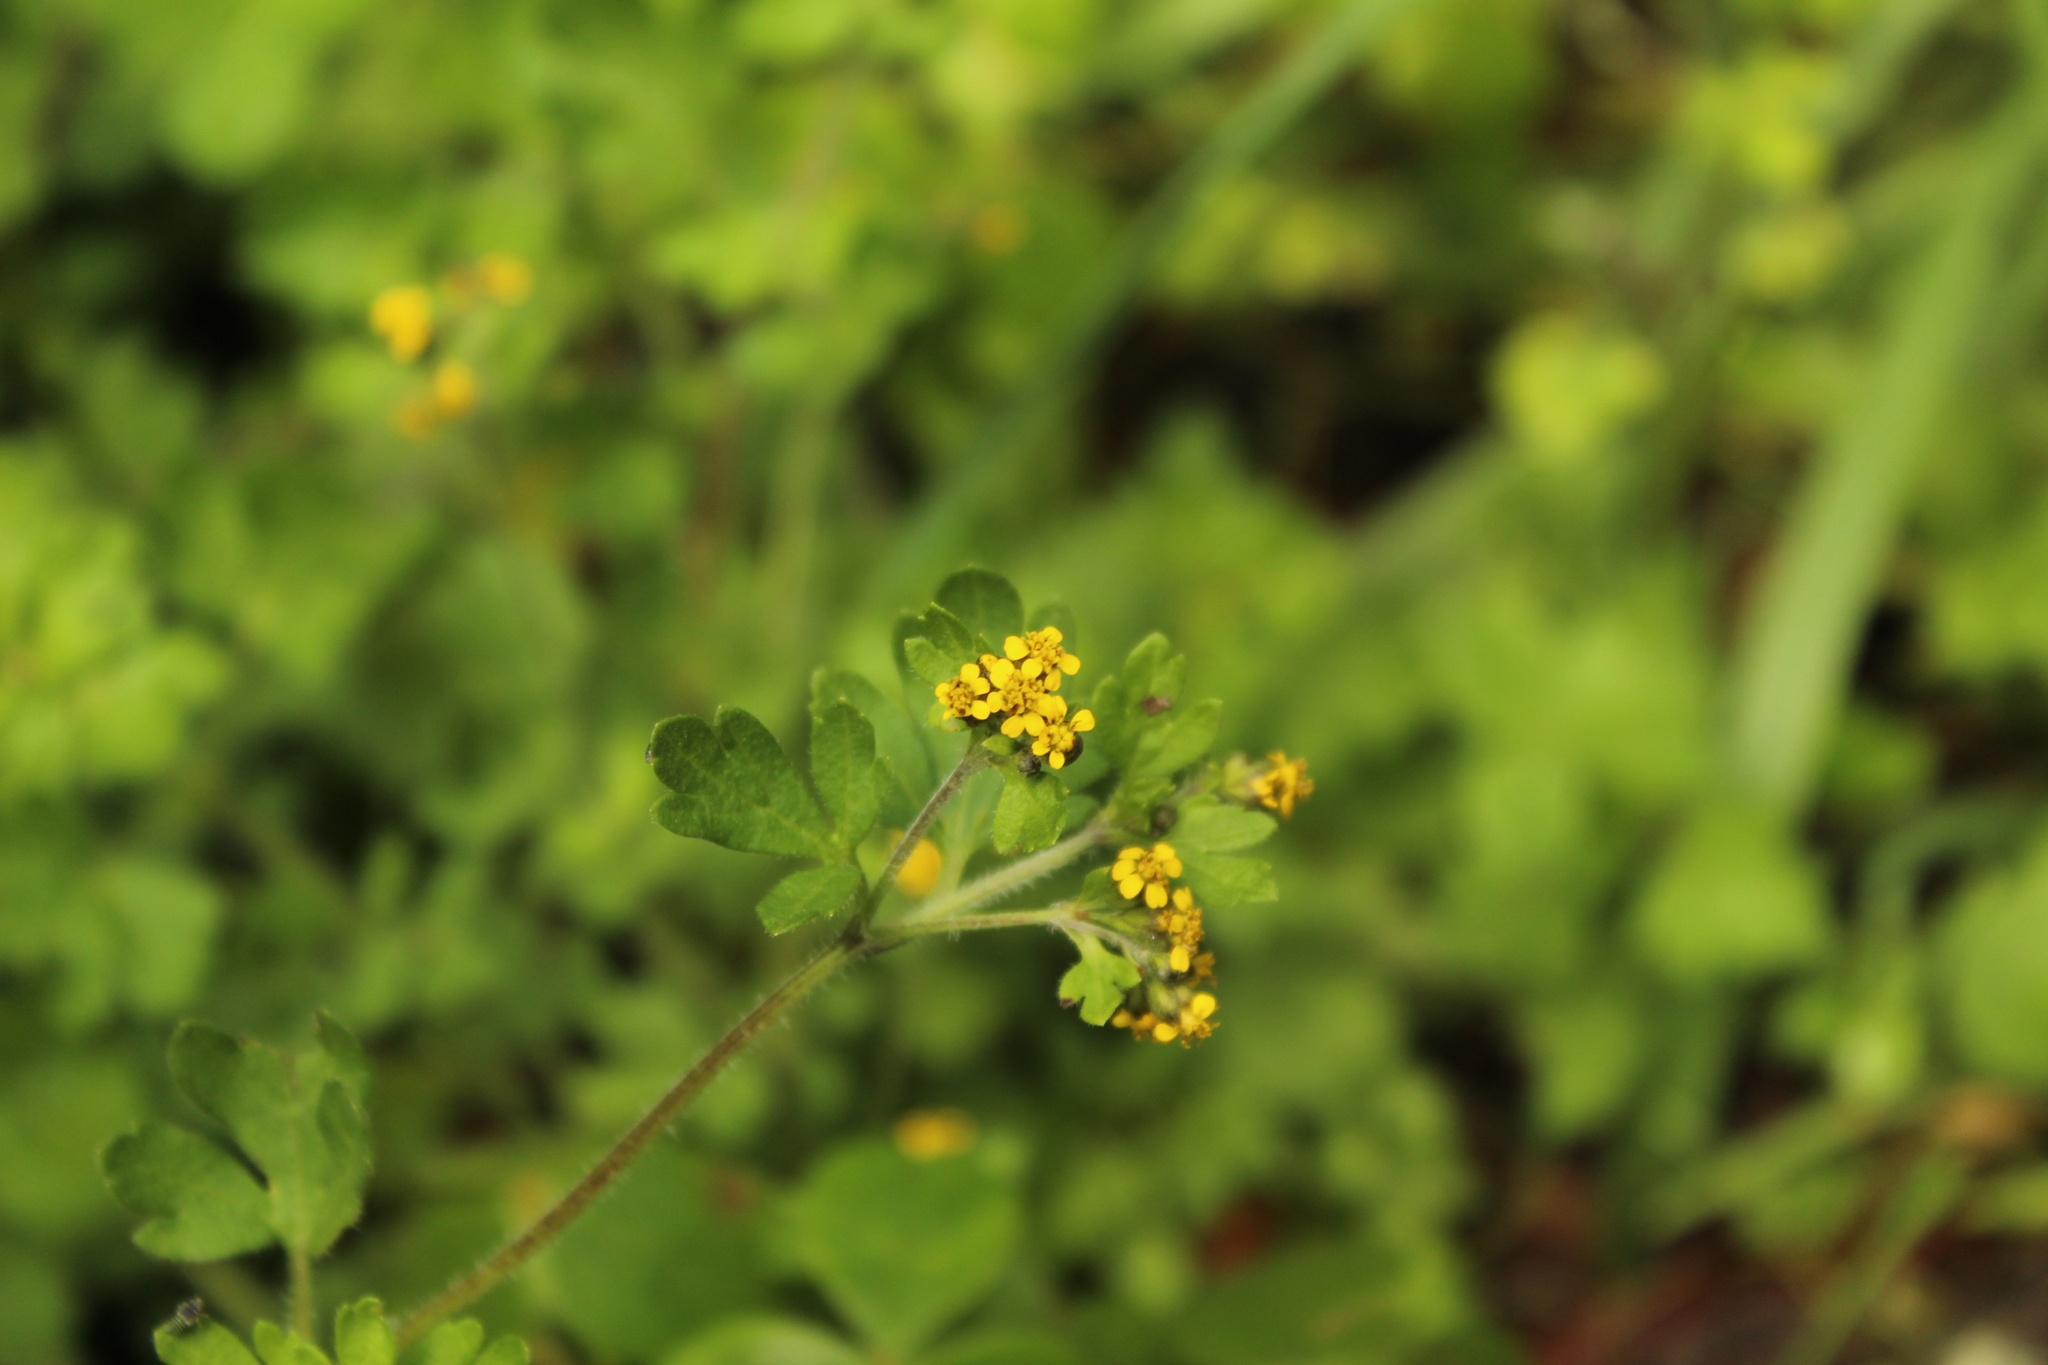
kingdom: Plantae
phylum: Tracheophyta
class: Magnoliopsida
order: Asterales
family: Asteraceae
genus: Villanova
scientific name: Villanova oppositifolia
